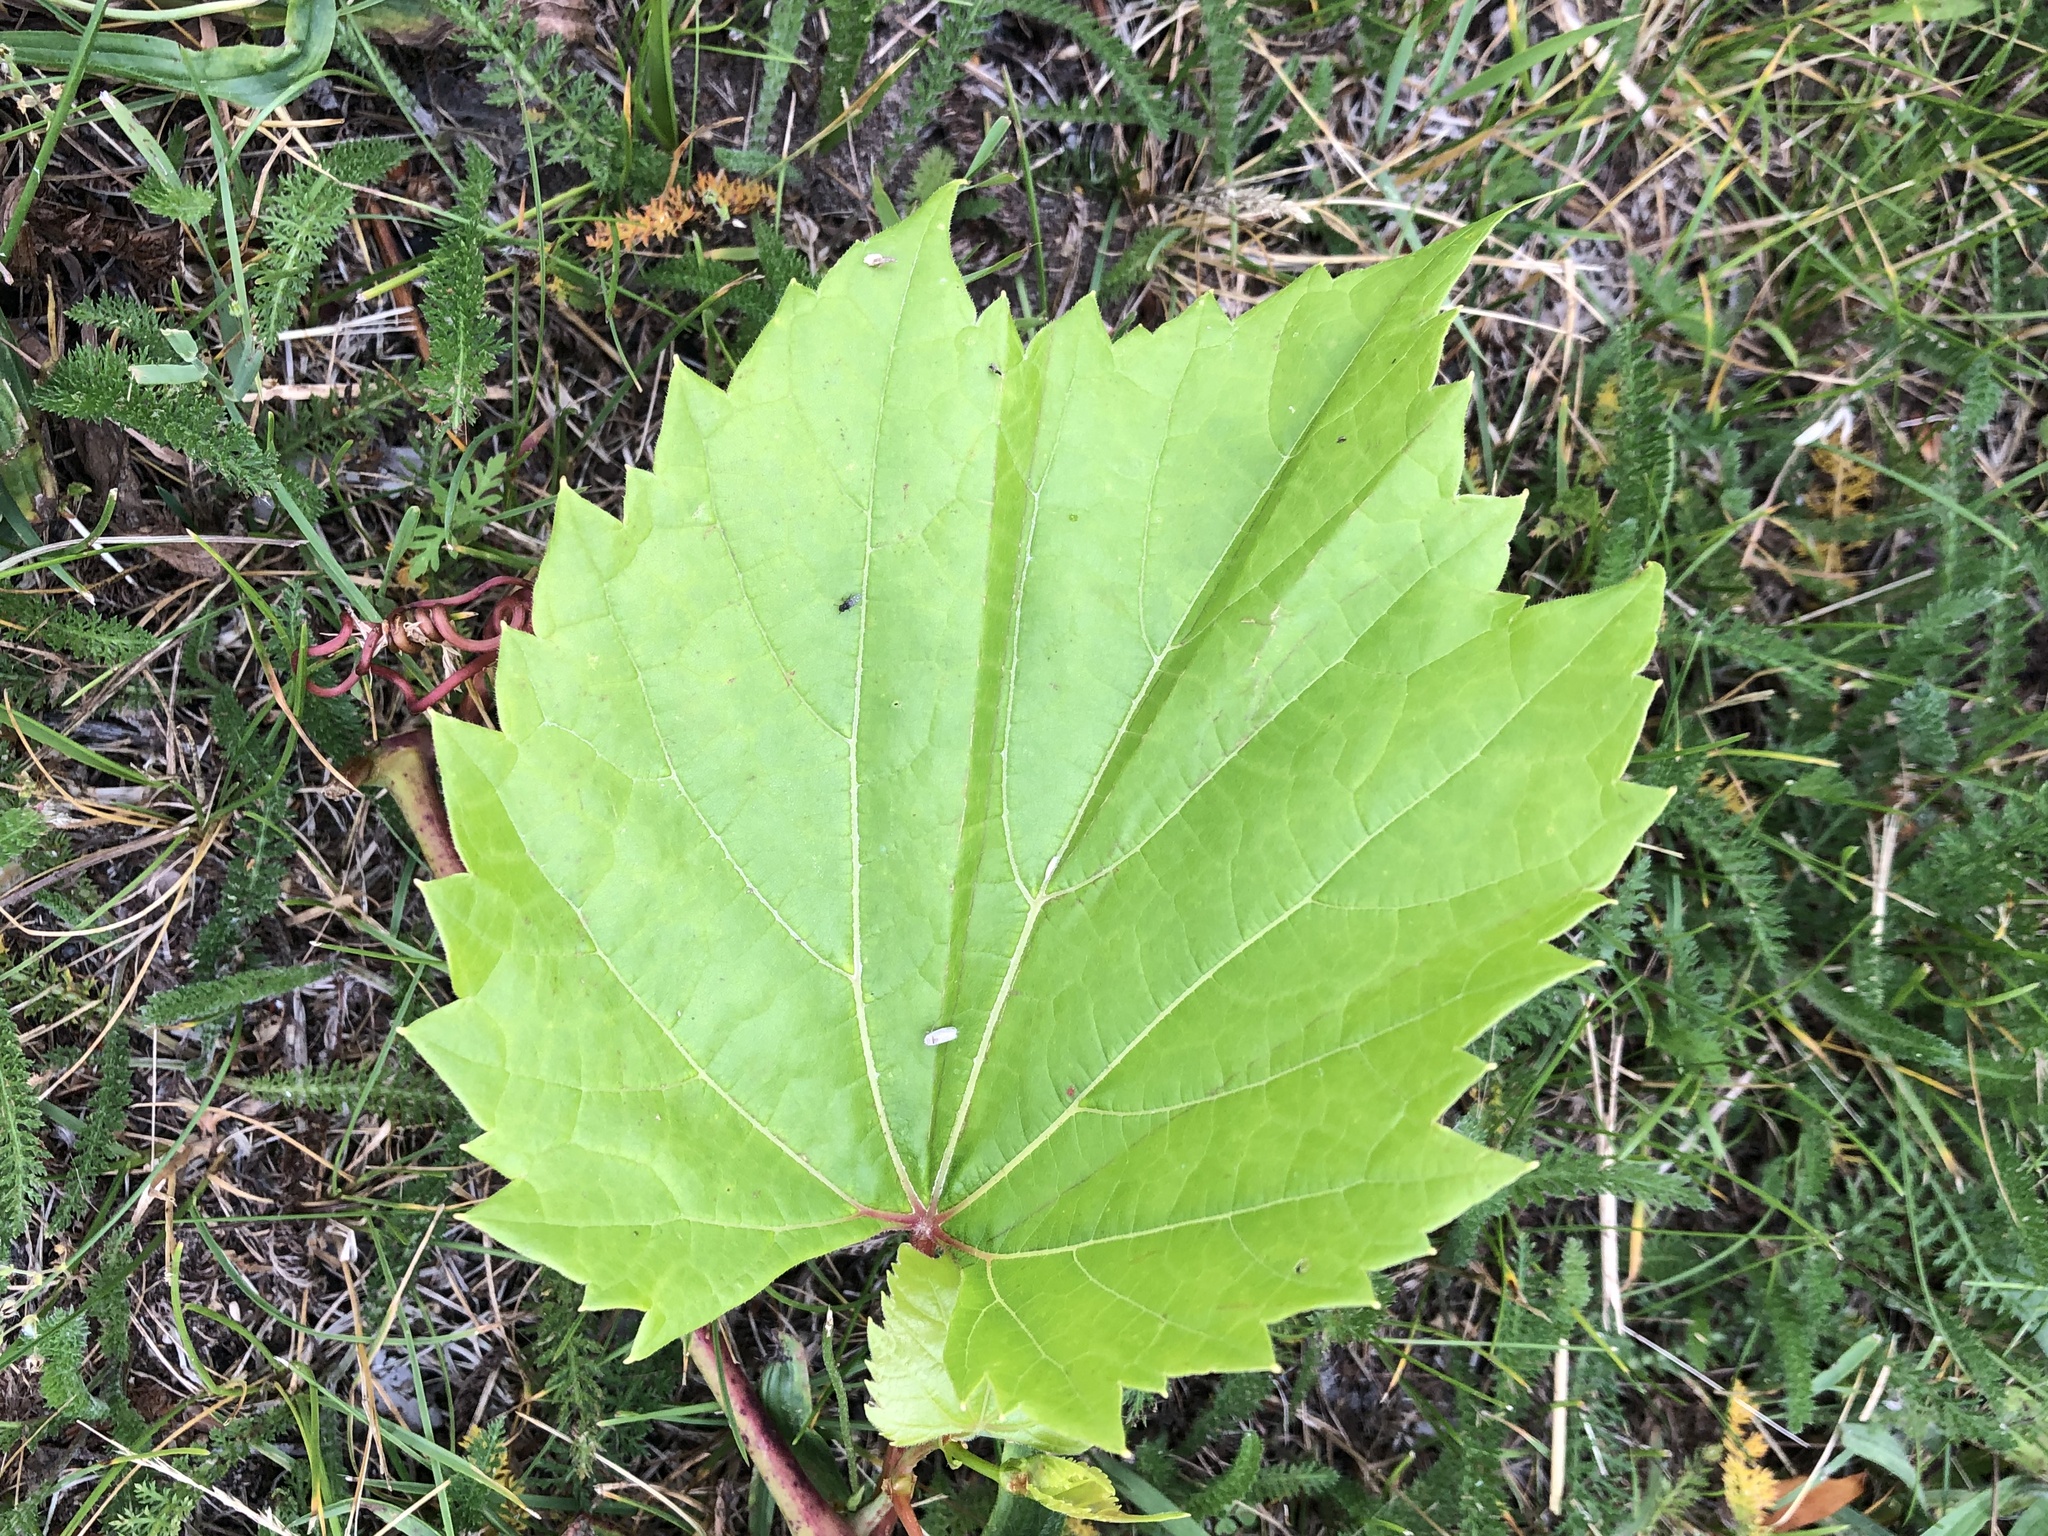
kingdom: Plantae
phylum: Tracheophyta
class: Magnoliopsida
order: Vitales
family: Vitaceae
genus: Vitis
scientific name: Vitis riparia
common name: Frost grape
